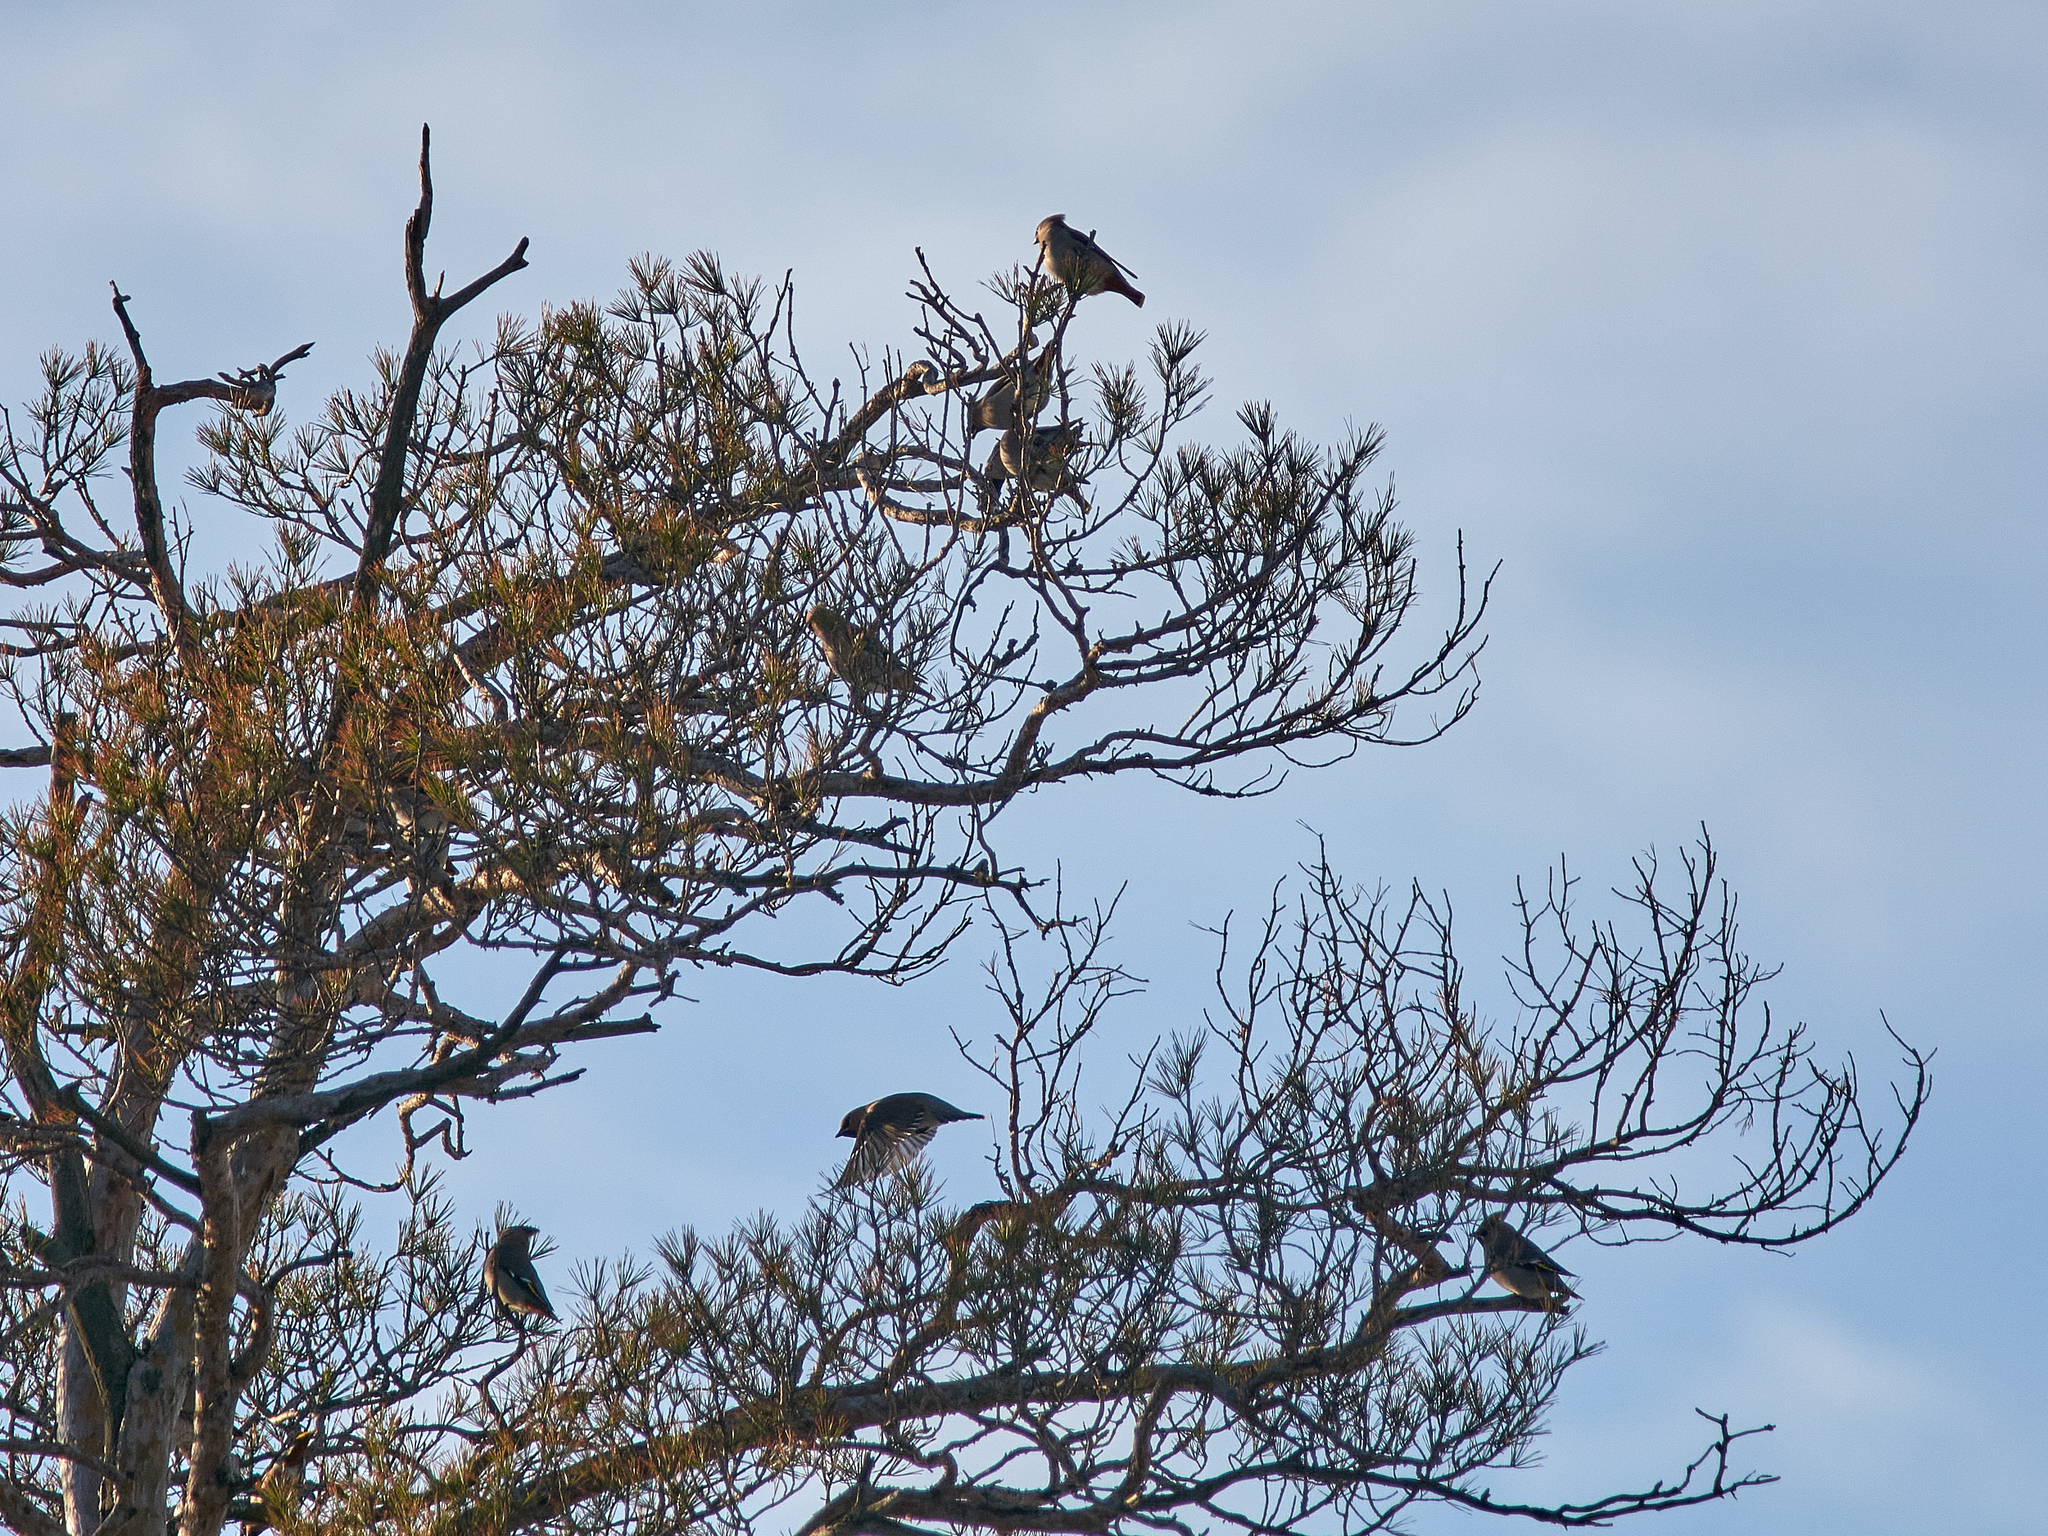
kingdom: Animalia
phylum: Chordata
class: Aves
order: Passeriformes
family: Bombycillidae
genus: Bombycilla
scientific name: Bombycilla garrulus
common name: Bohemian waxwing
